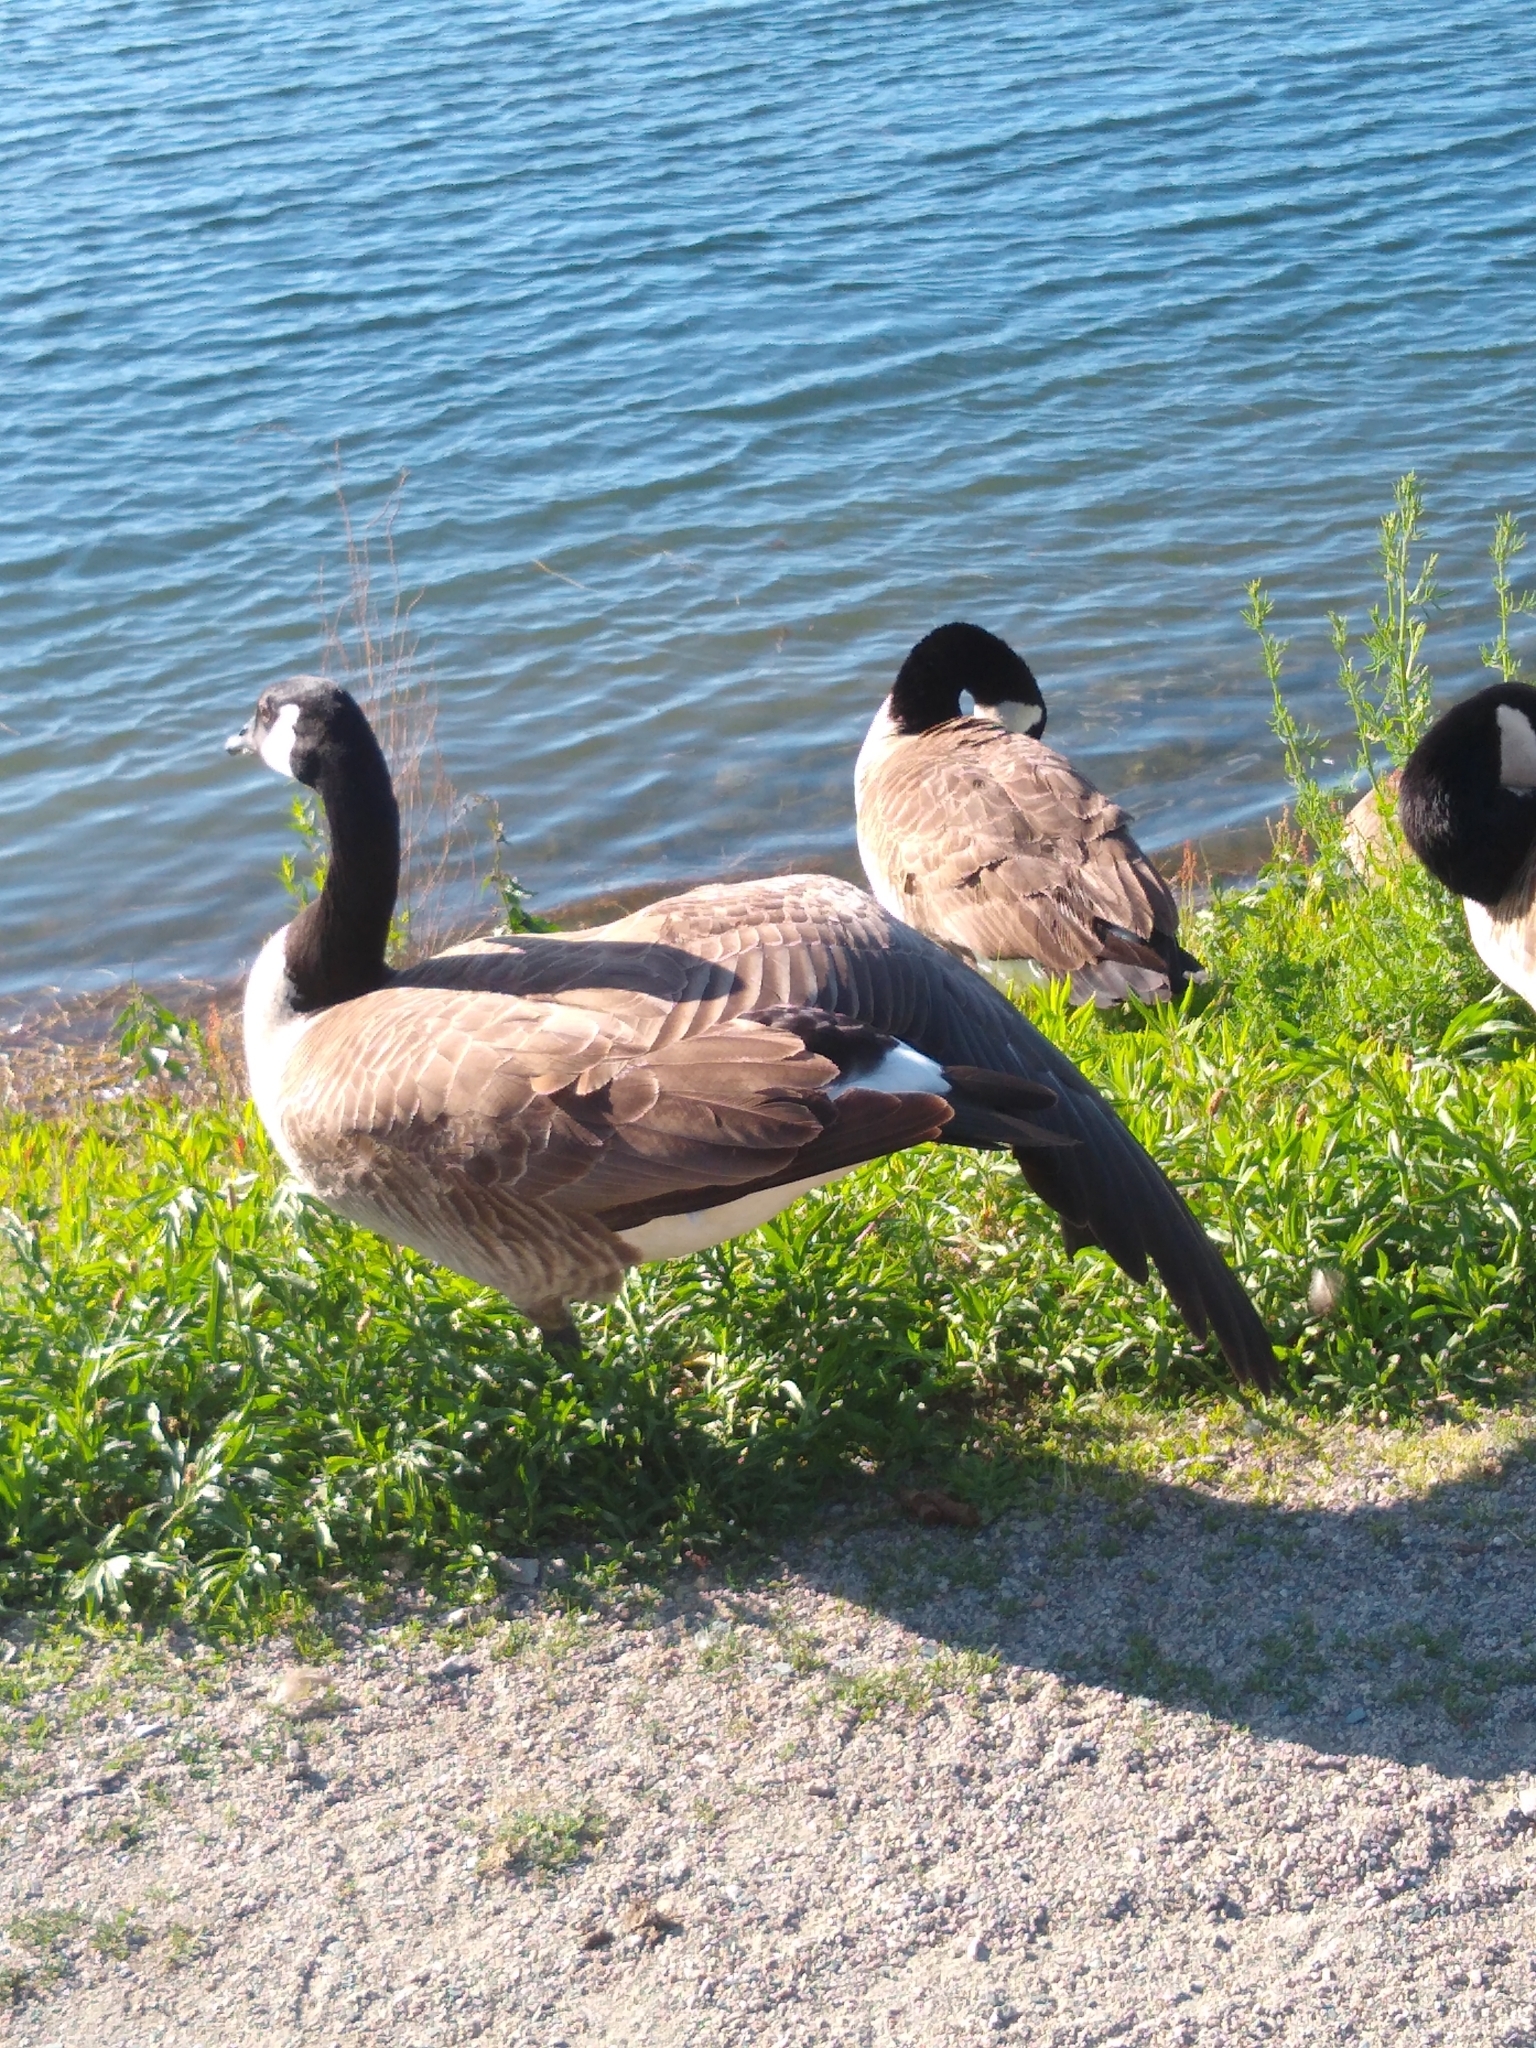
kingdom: Animalia
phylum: Chordata
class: Aves
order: Anseriformes
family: Anatidae
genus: Branta
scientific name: Branta canadensis
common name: Canada goose
